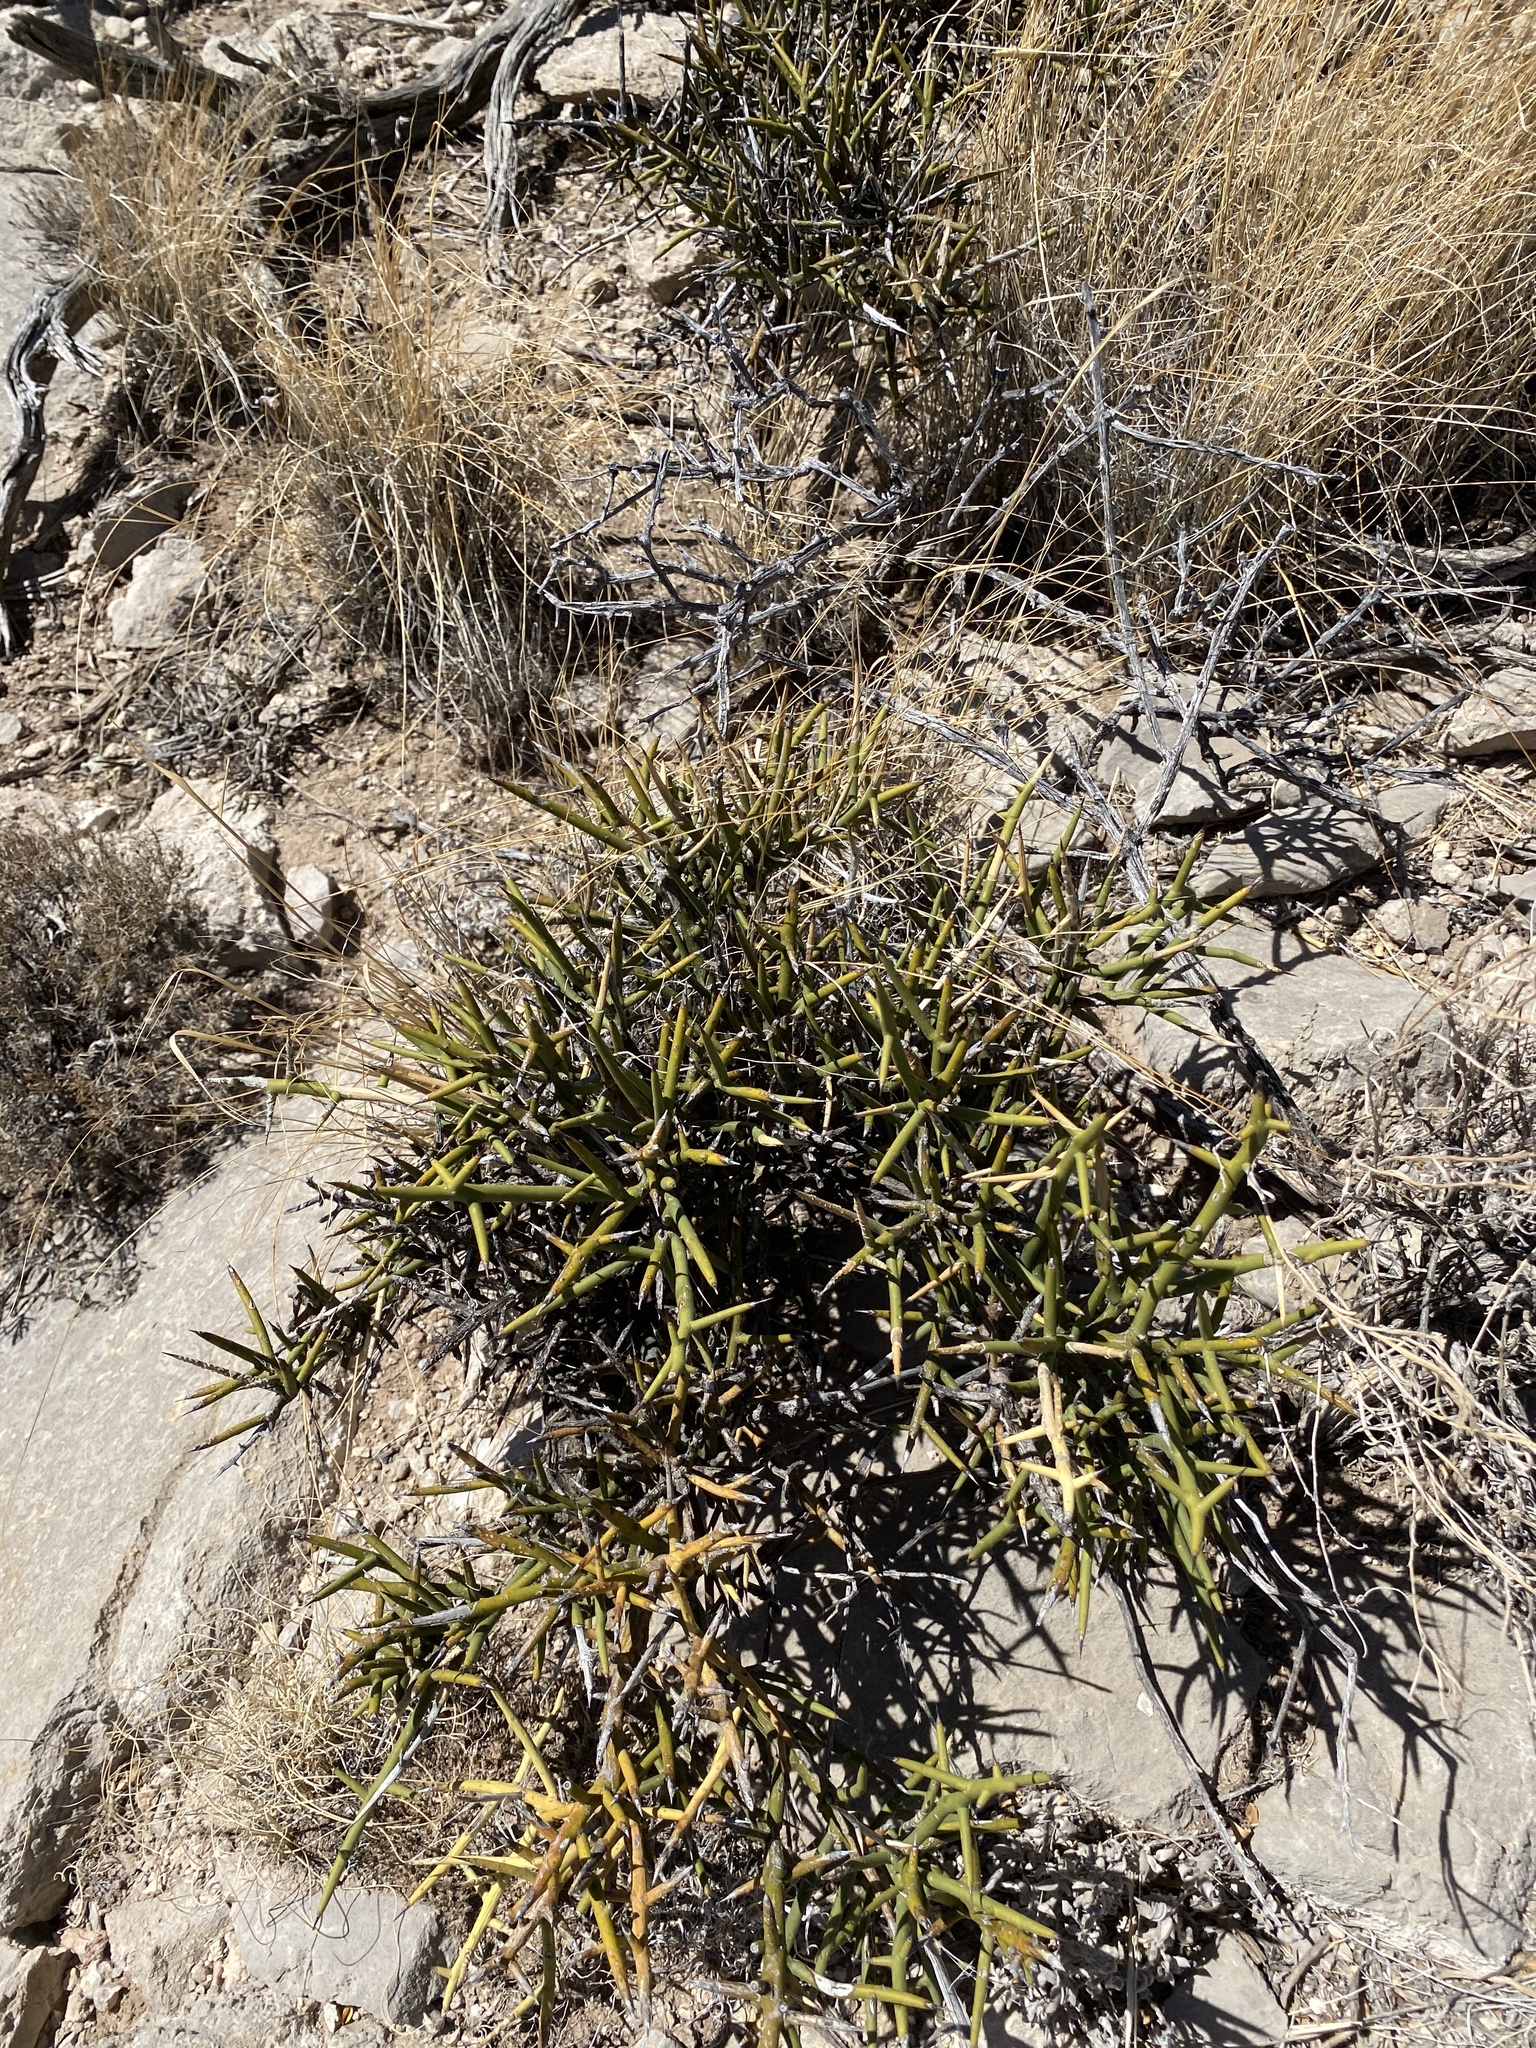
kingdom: Plantae
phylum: Tracheophyta
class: Magnoliopsida
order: Brassicales
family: Koeberliniaceae
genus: Koeberlinia
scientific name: Koeberlinia spinosa
